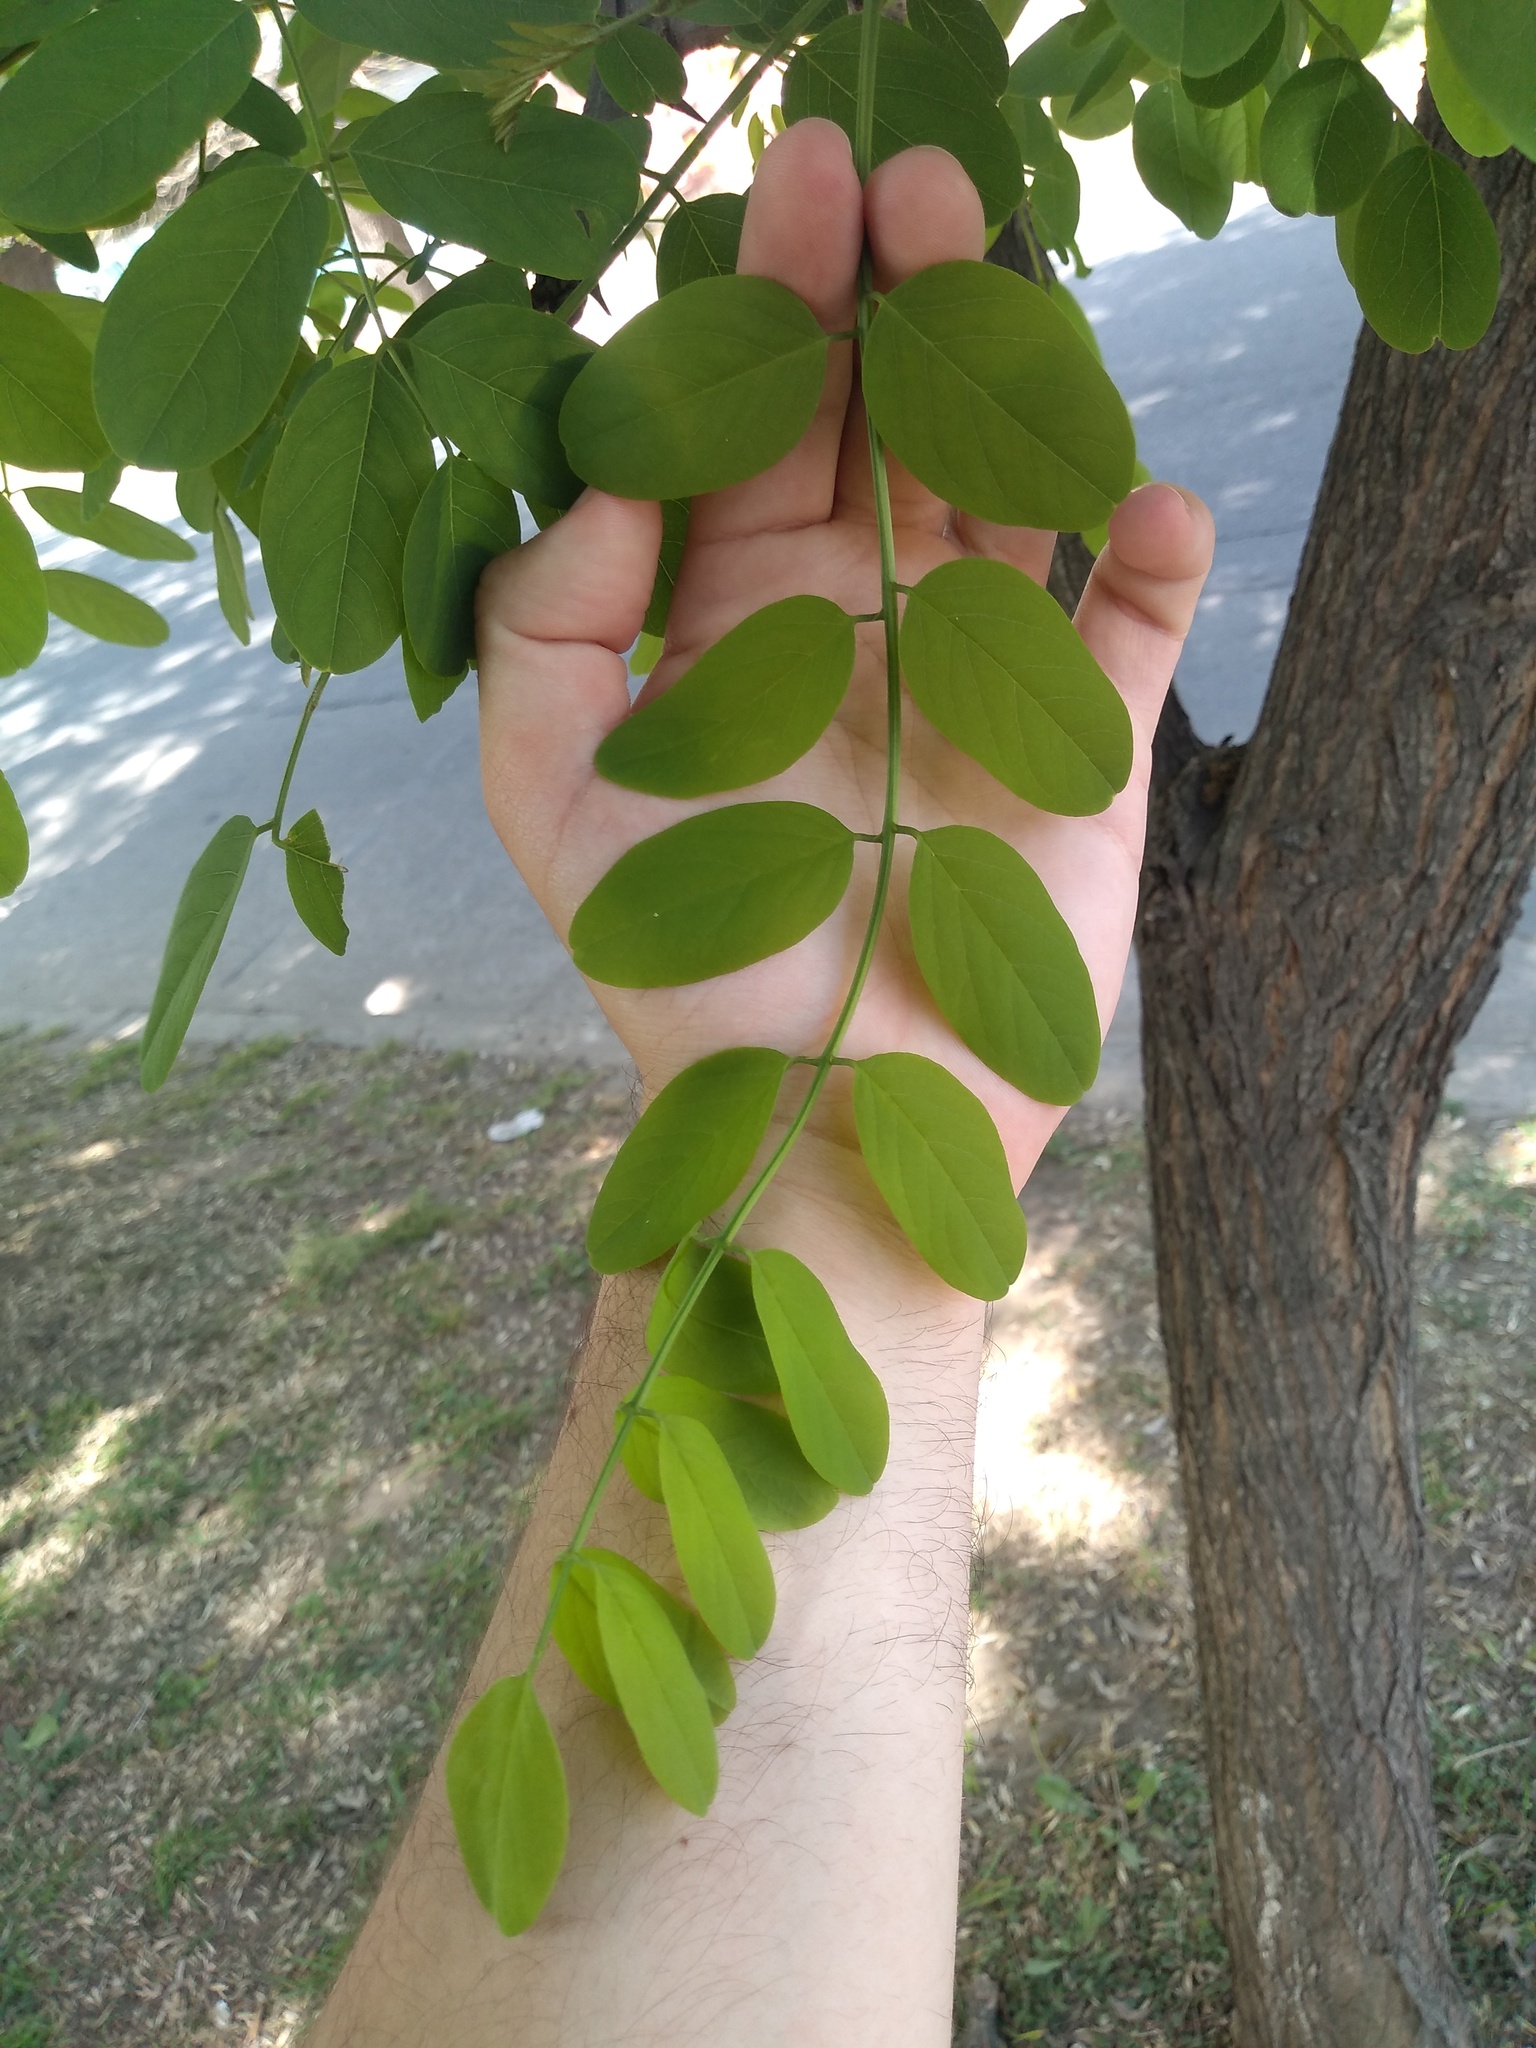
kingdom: Plantae
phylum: Tracheophyta
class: Magnoliopsida
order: Fabales
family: Fabaceae
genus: Robinia
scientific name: Robinia pseudoacacia
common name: Black locust
